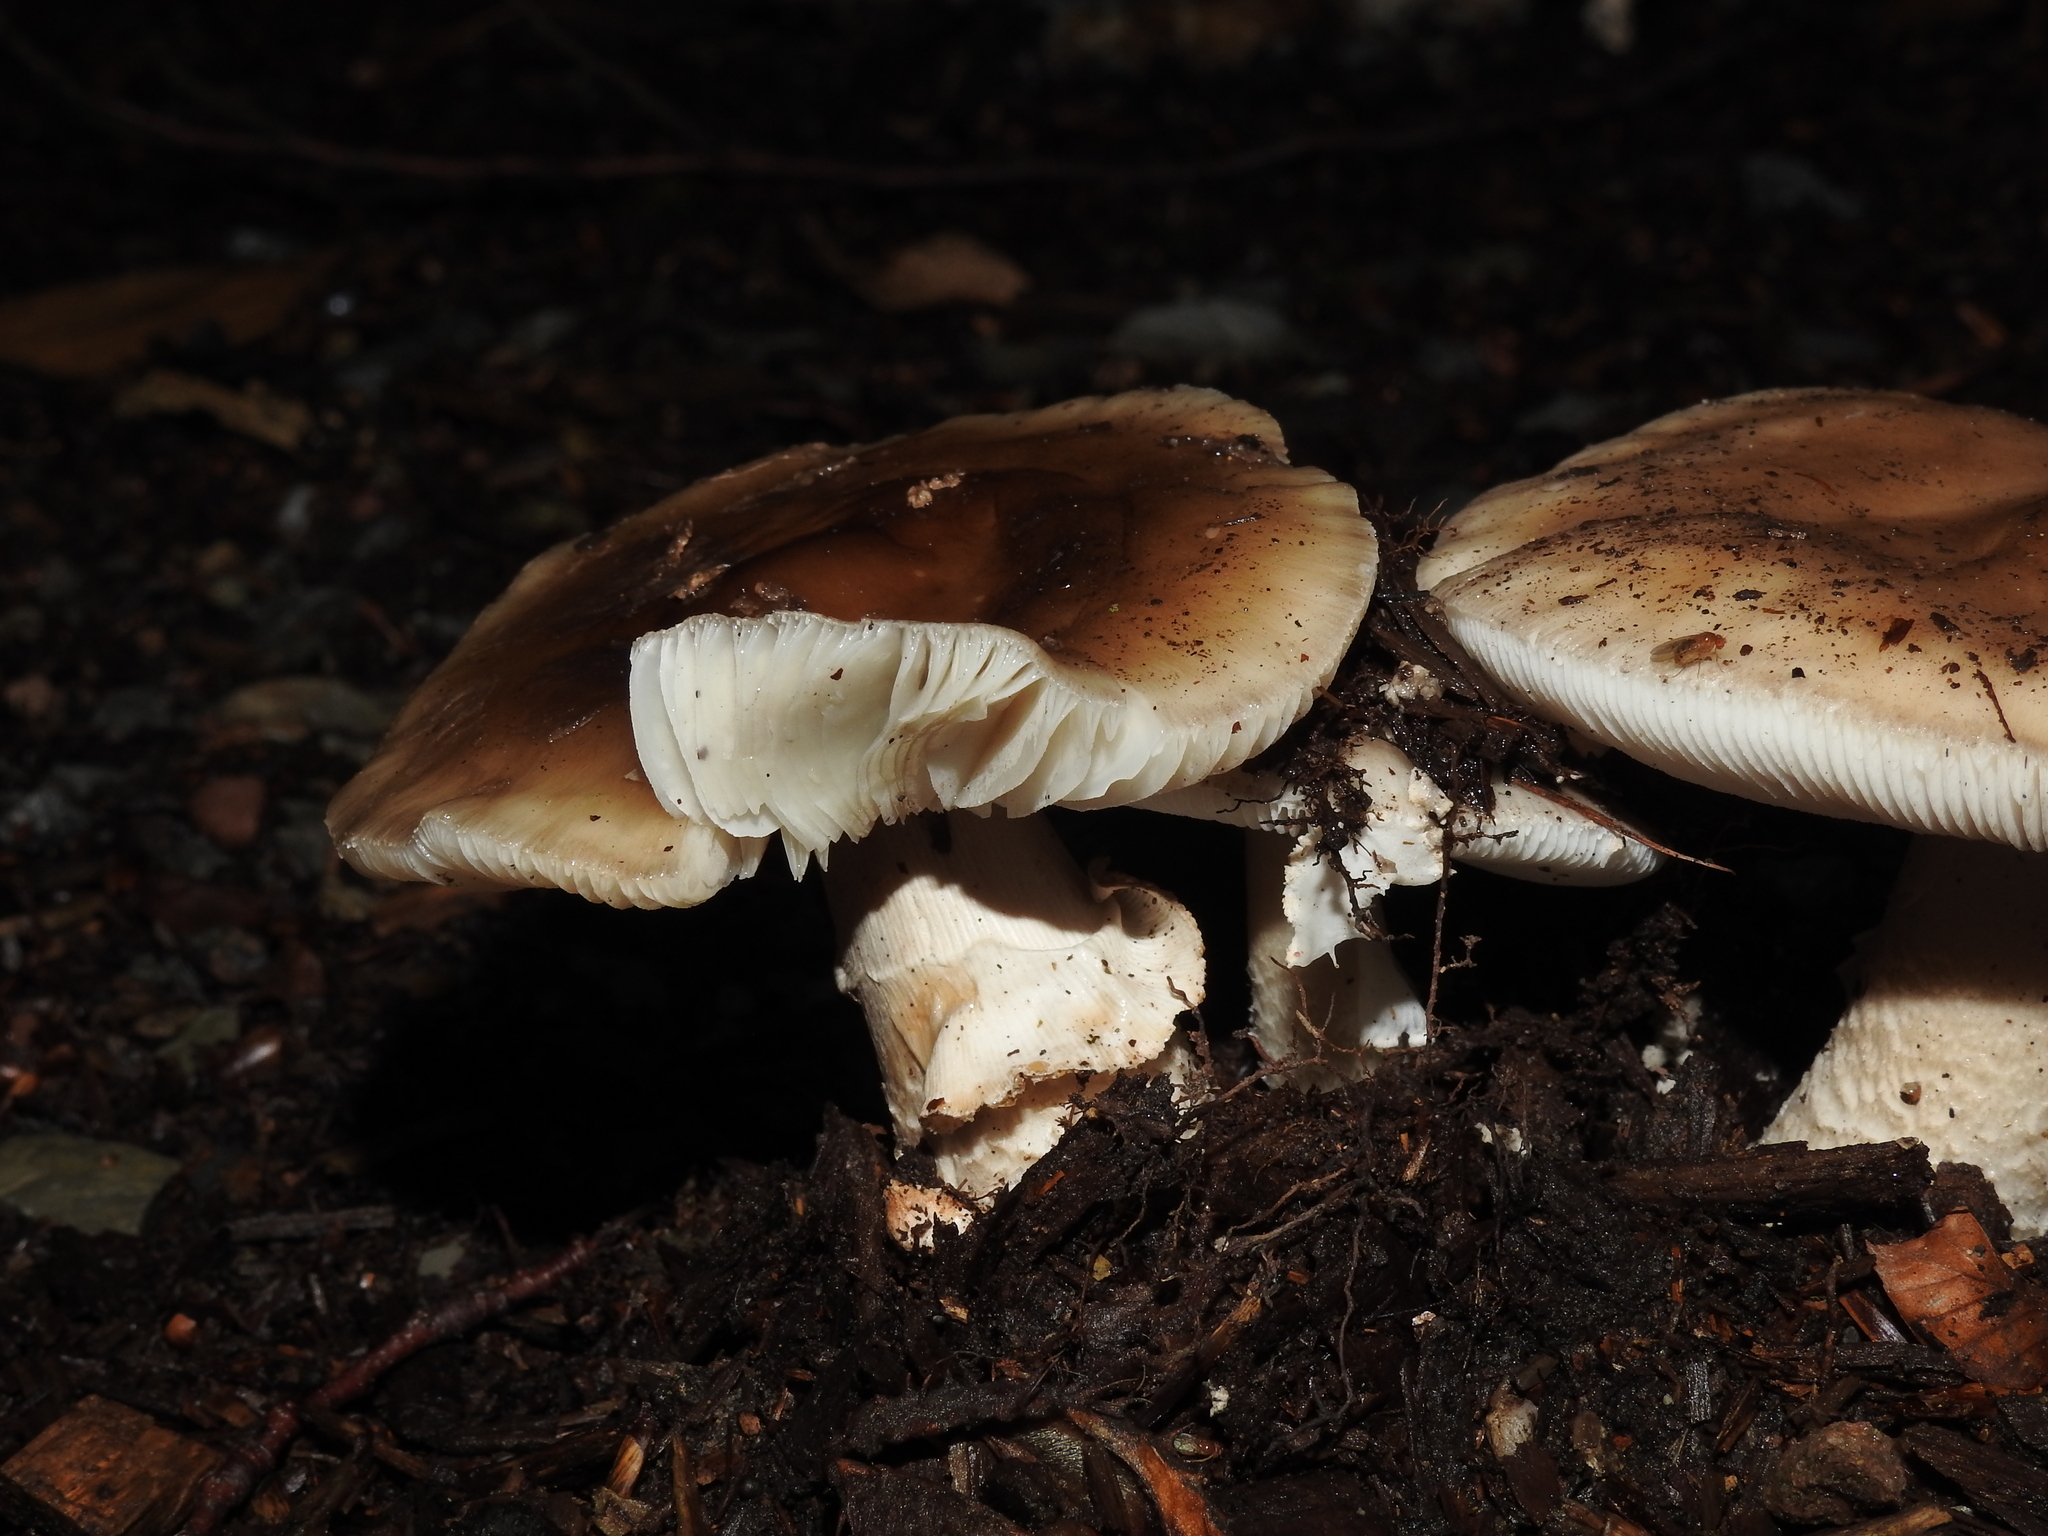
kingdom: Fungi
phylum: Basidiomycota
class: Agaricomycetes
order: Agaricales
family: Amanitaceae
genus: Amanita
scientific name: Amanita rubescens
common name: Blusher
